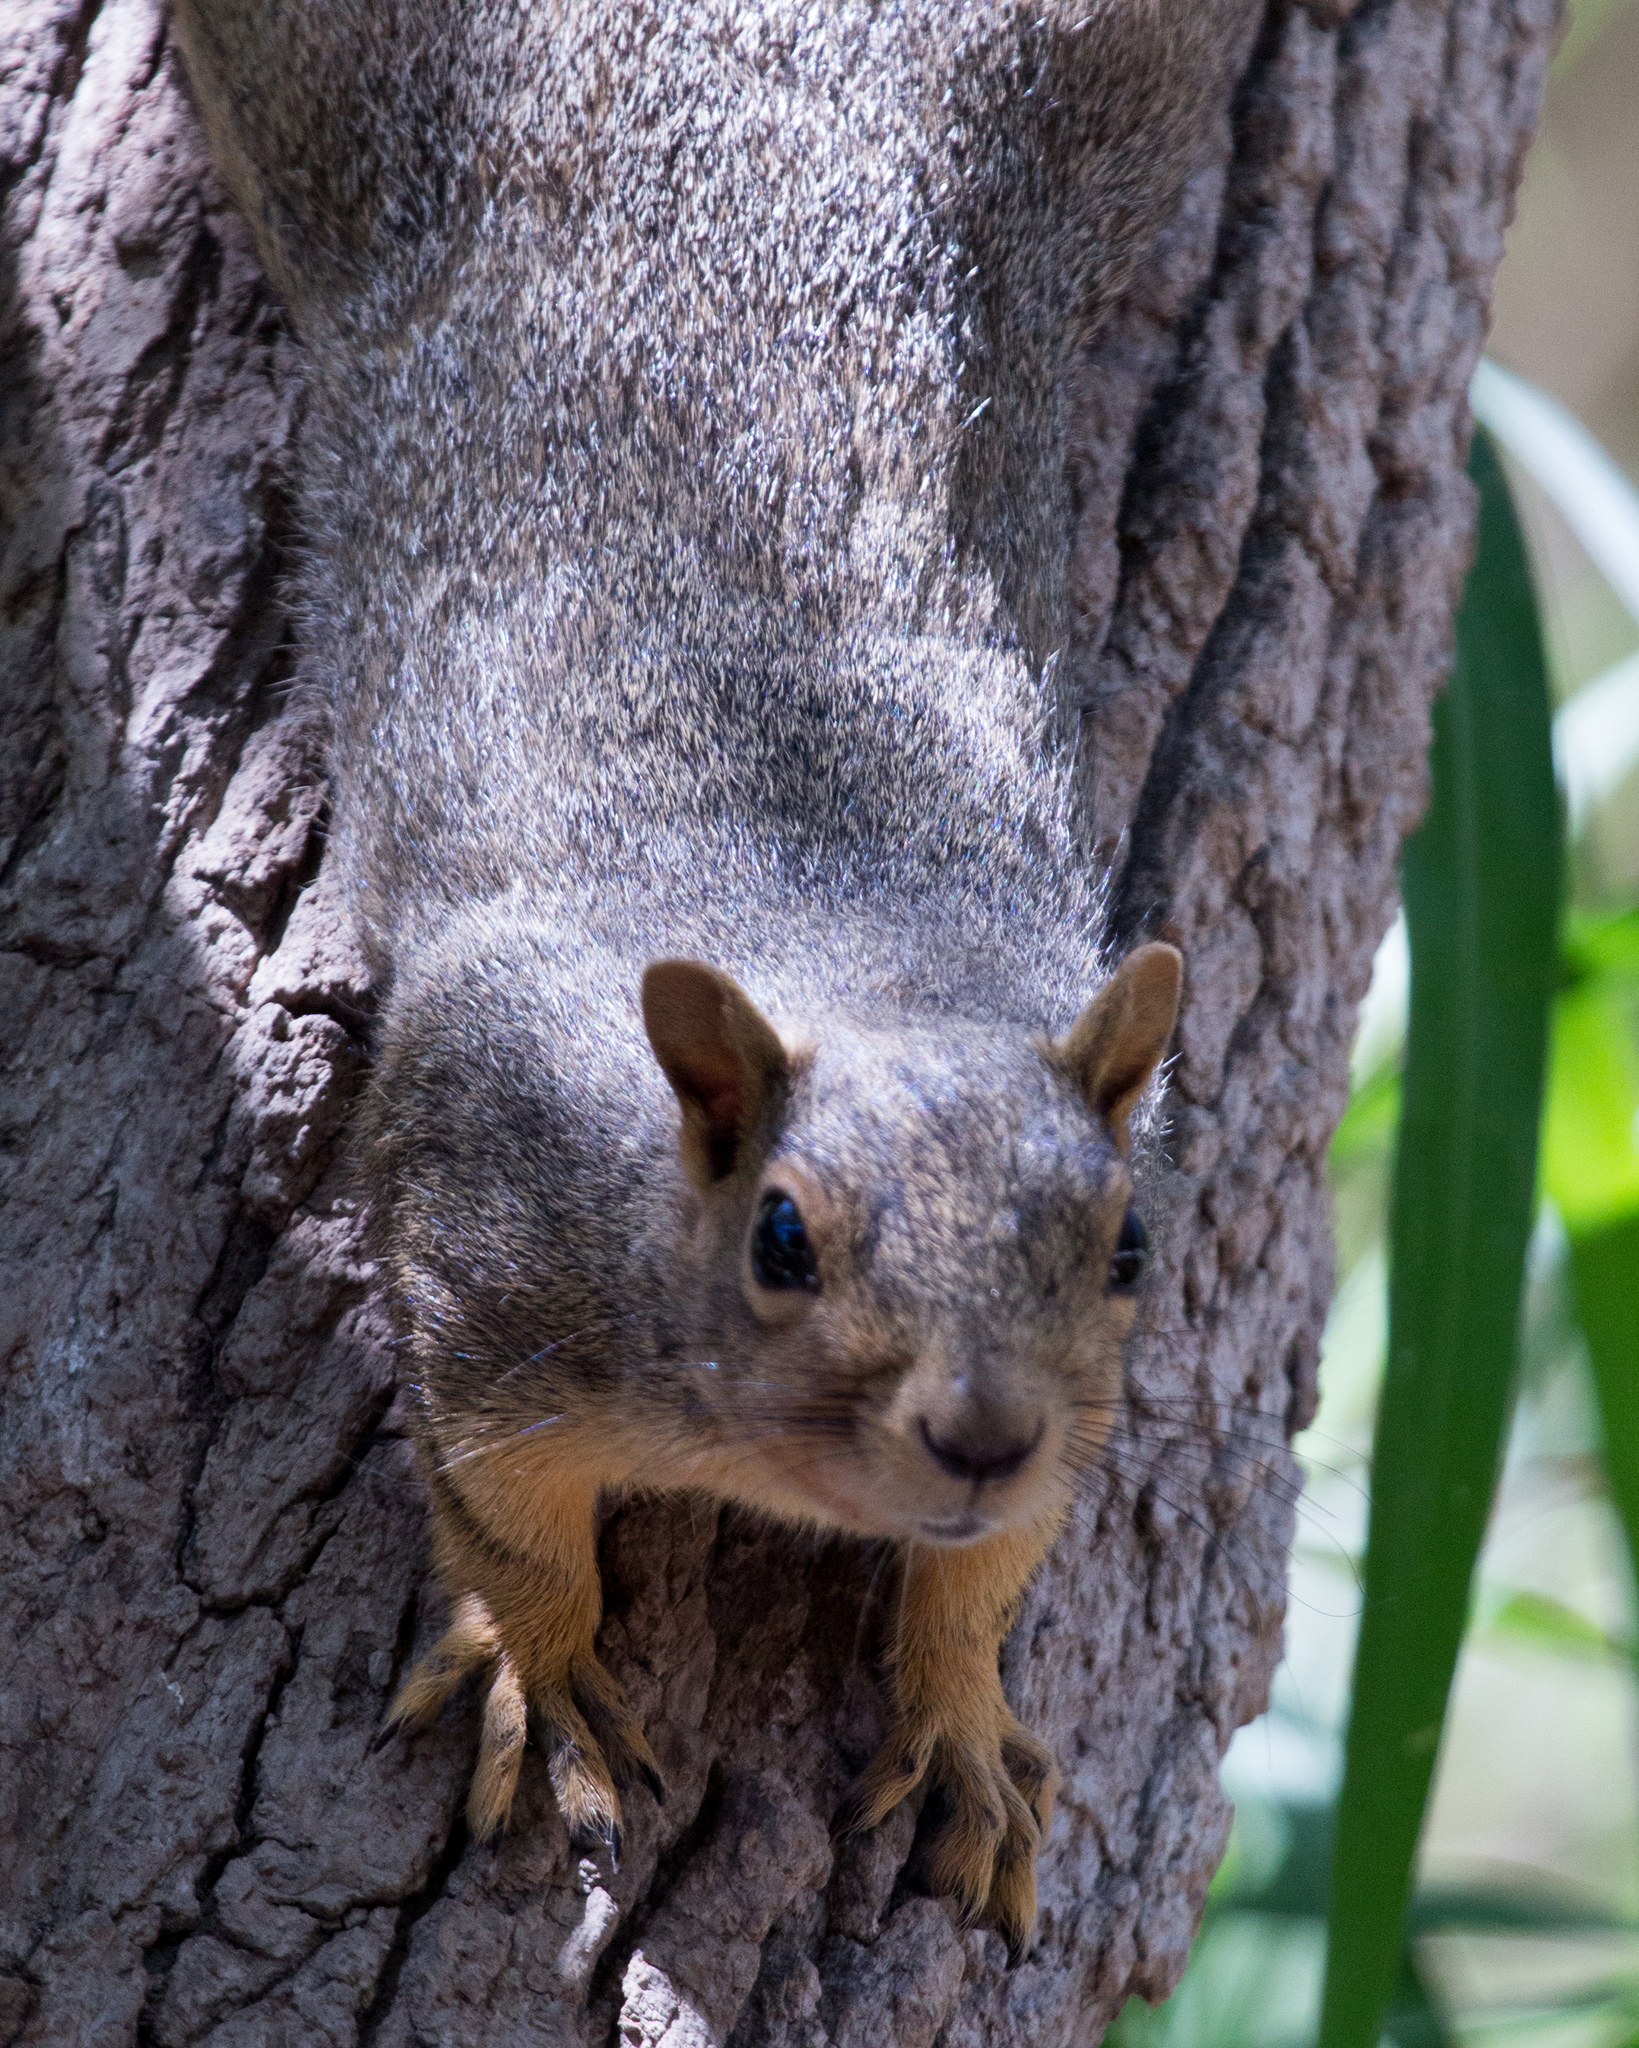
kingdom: Animalia
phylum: Chordata
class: Mammalia
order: Rodentia
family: Sciuridae
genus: Sciurus
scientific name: Sciurus niger
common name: Fox squirrel
